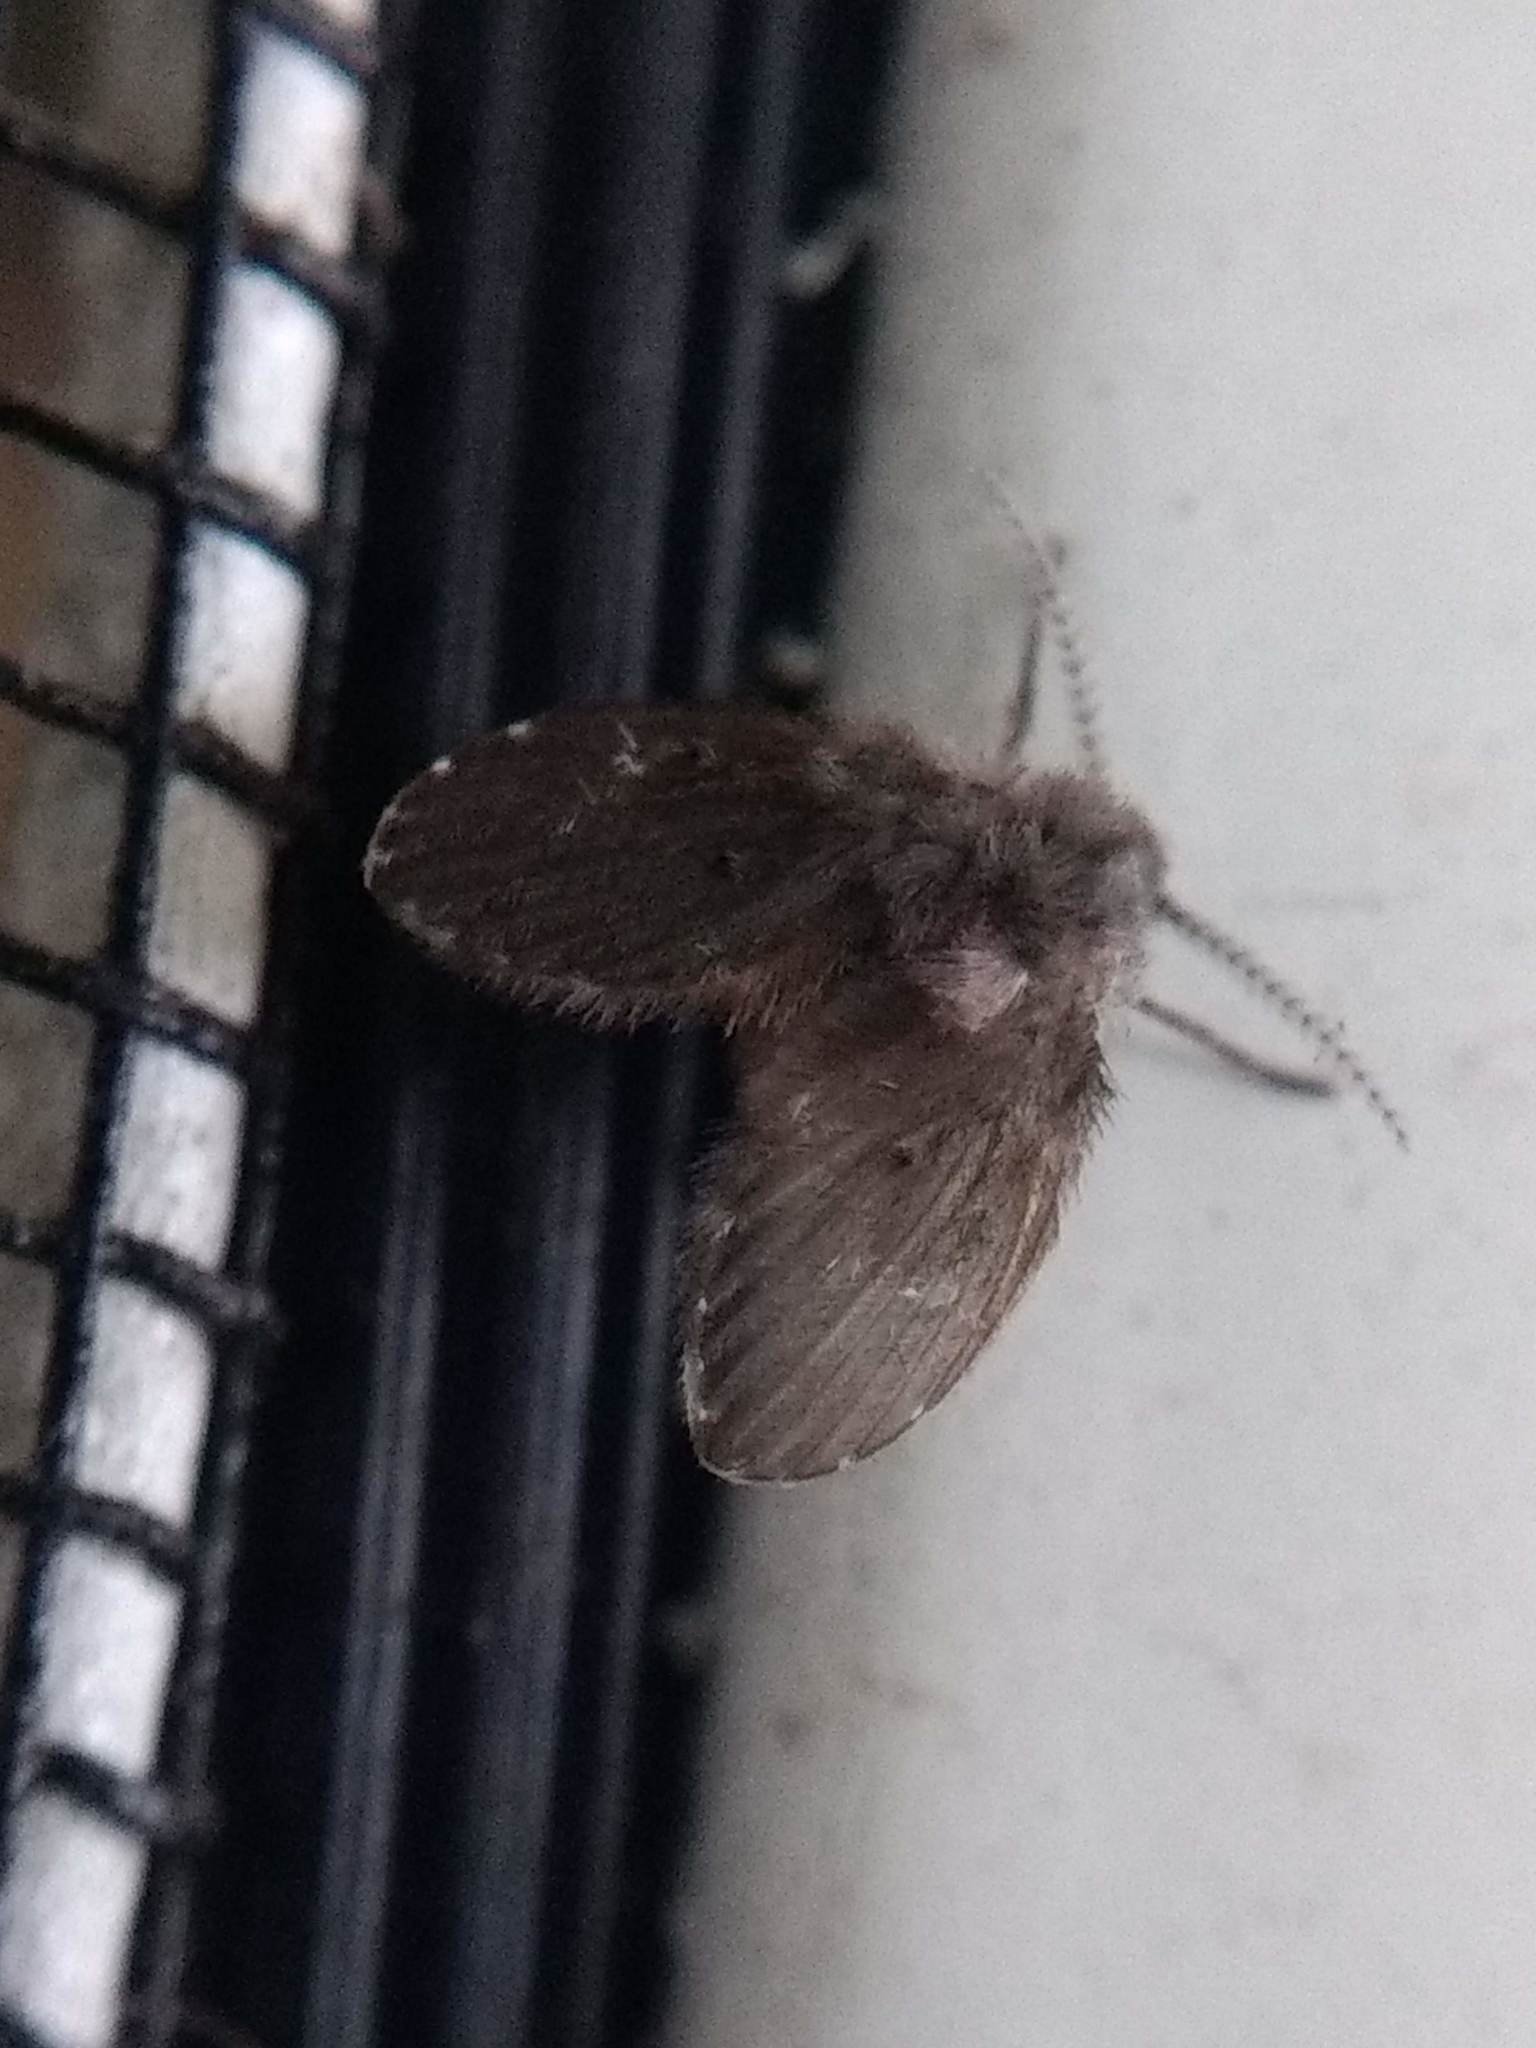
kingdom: Animalia
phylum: Arthropoda
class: Insecta
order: Diptera
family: Psychodidae
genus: Clogmia
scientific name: Clogmia albipunctatus
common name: White-spotted moth fly
